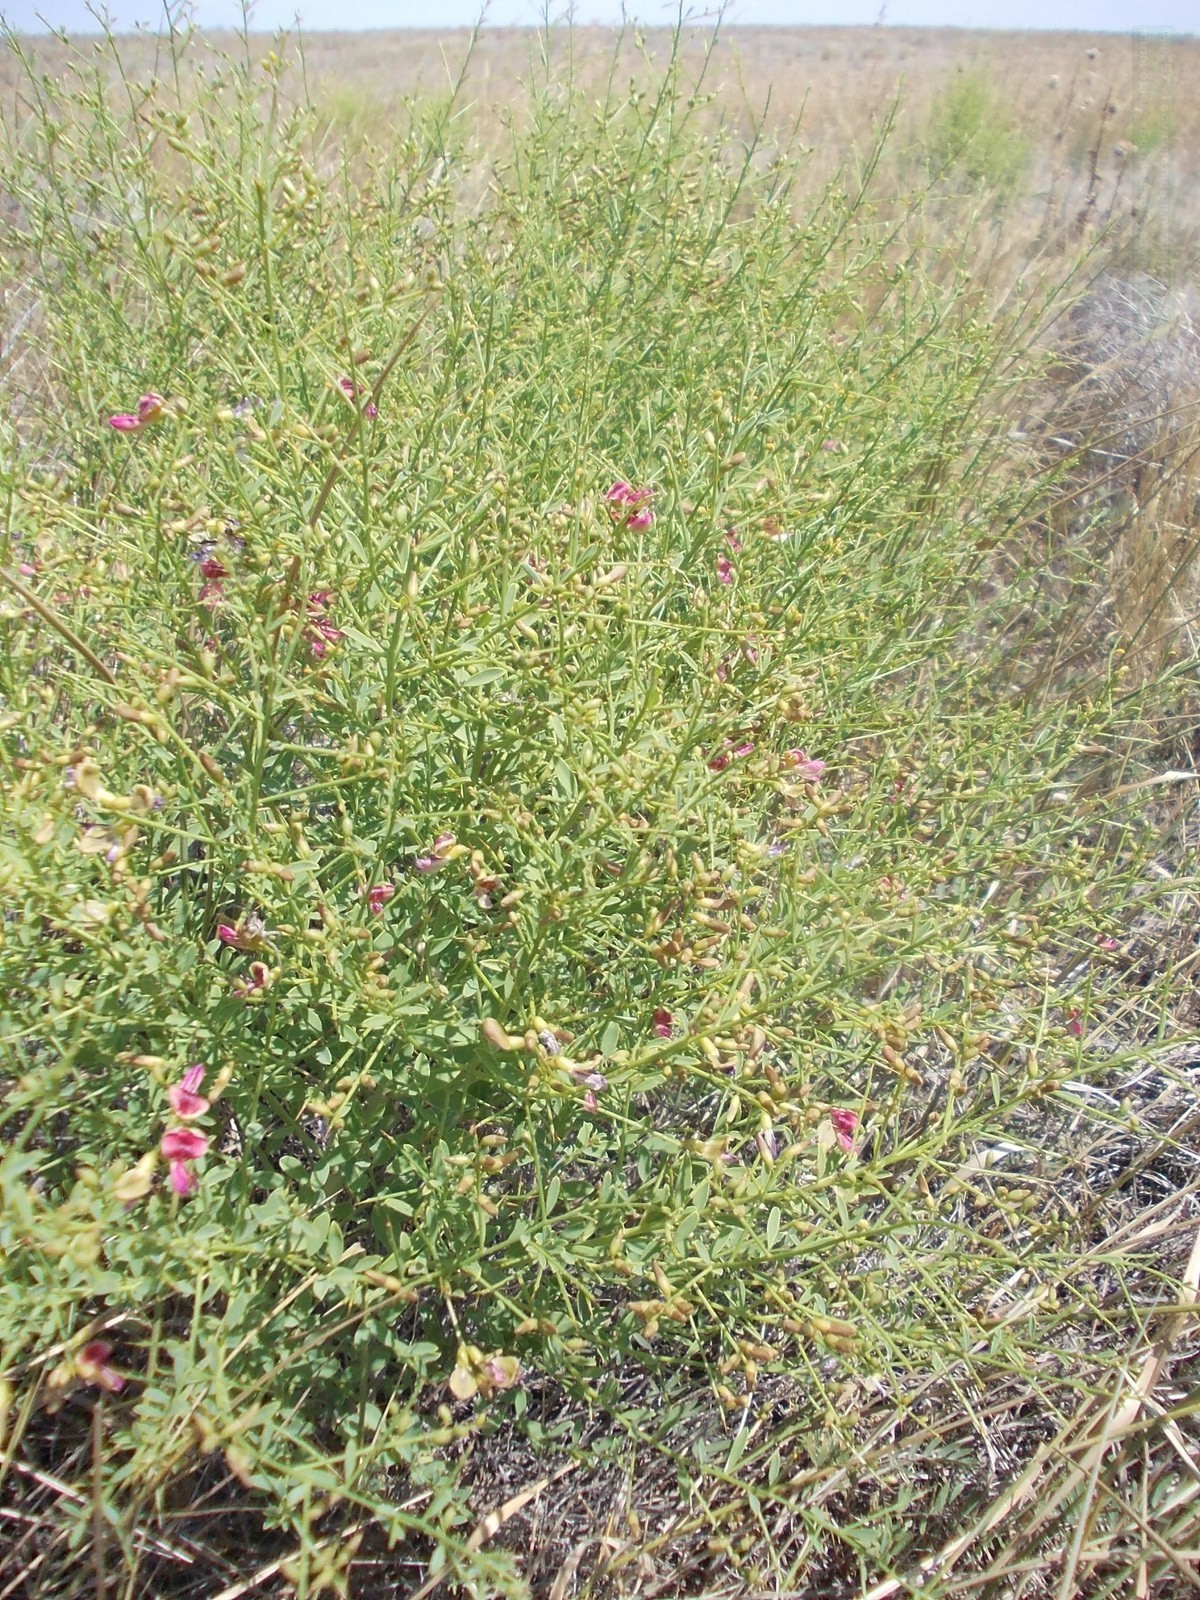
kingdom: Plantae
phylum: Tracheophyta
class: Magnoliopsida
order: Fabales
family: Fabaceae
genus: Alhagi
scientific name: Alhagi pseudalhagi
